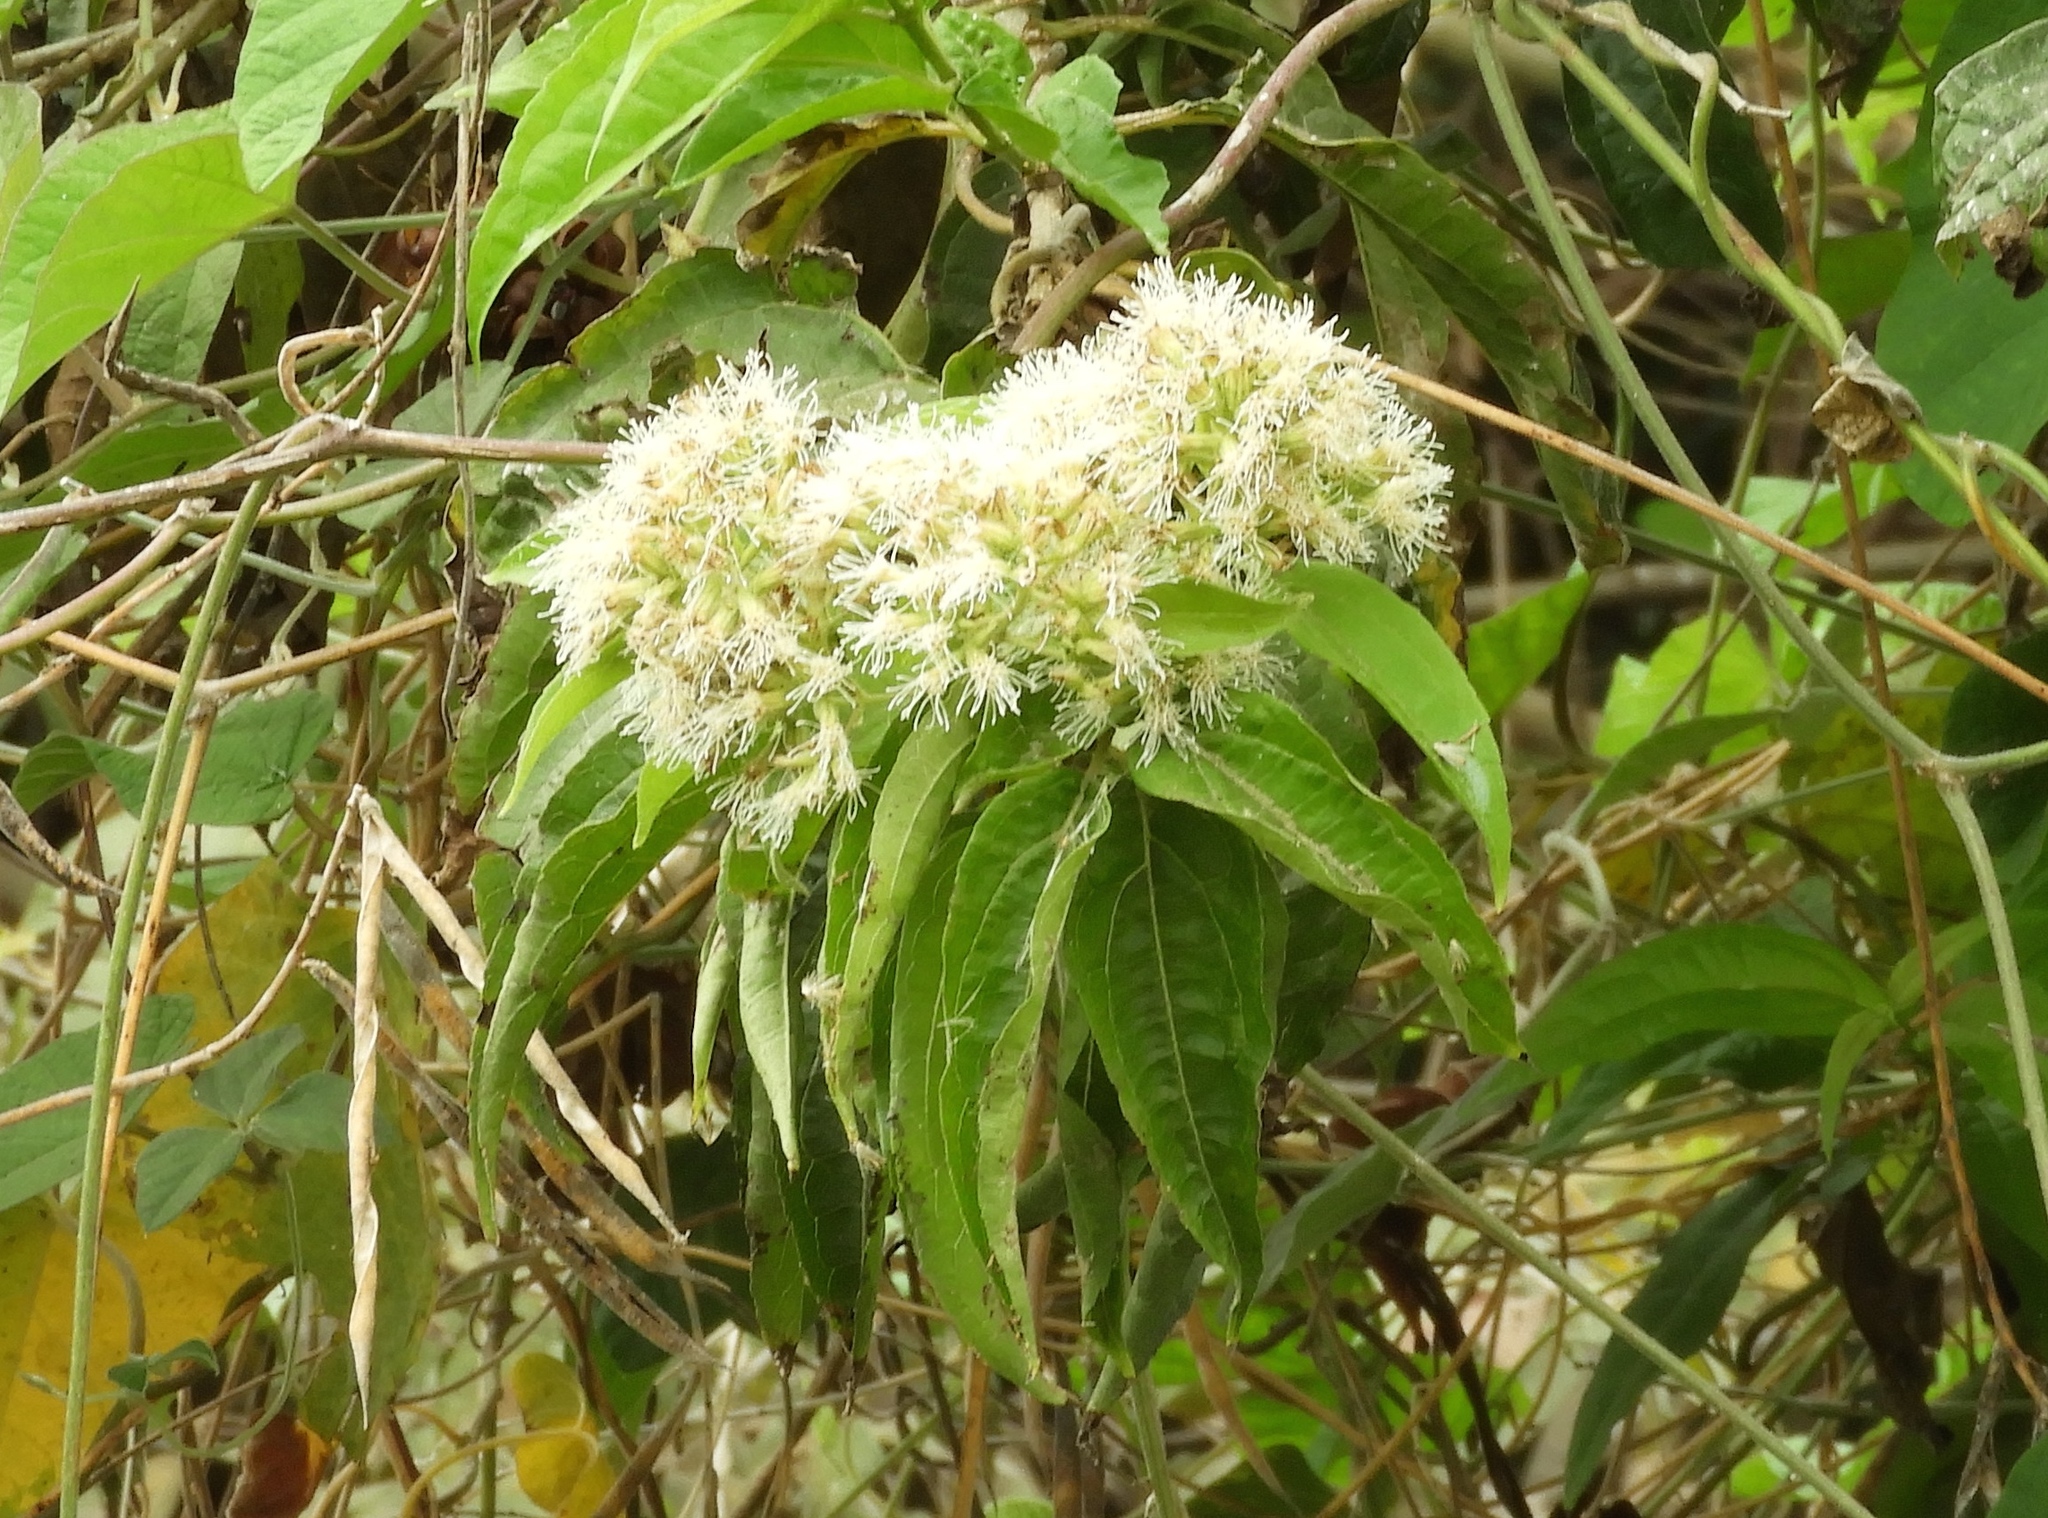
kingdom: Plantae
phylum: Tracheophyta
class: Magnoliopsida
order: Asterales
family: Asteraceae
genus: Koanophyllon
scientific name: Koanophyllon albicaule
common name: Old women's walking stick
